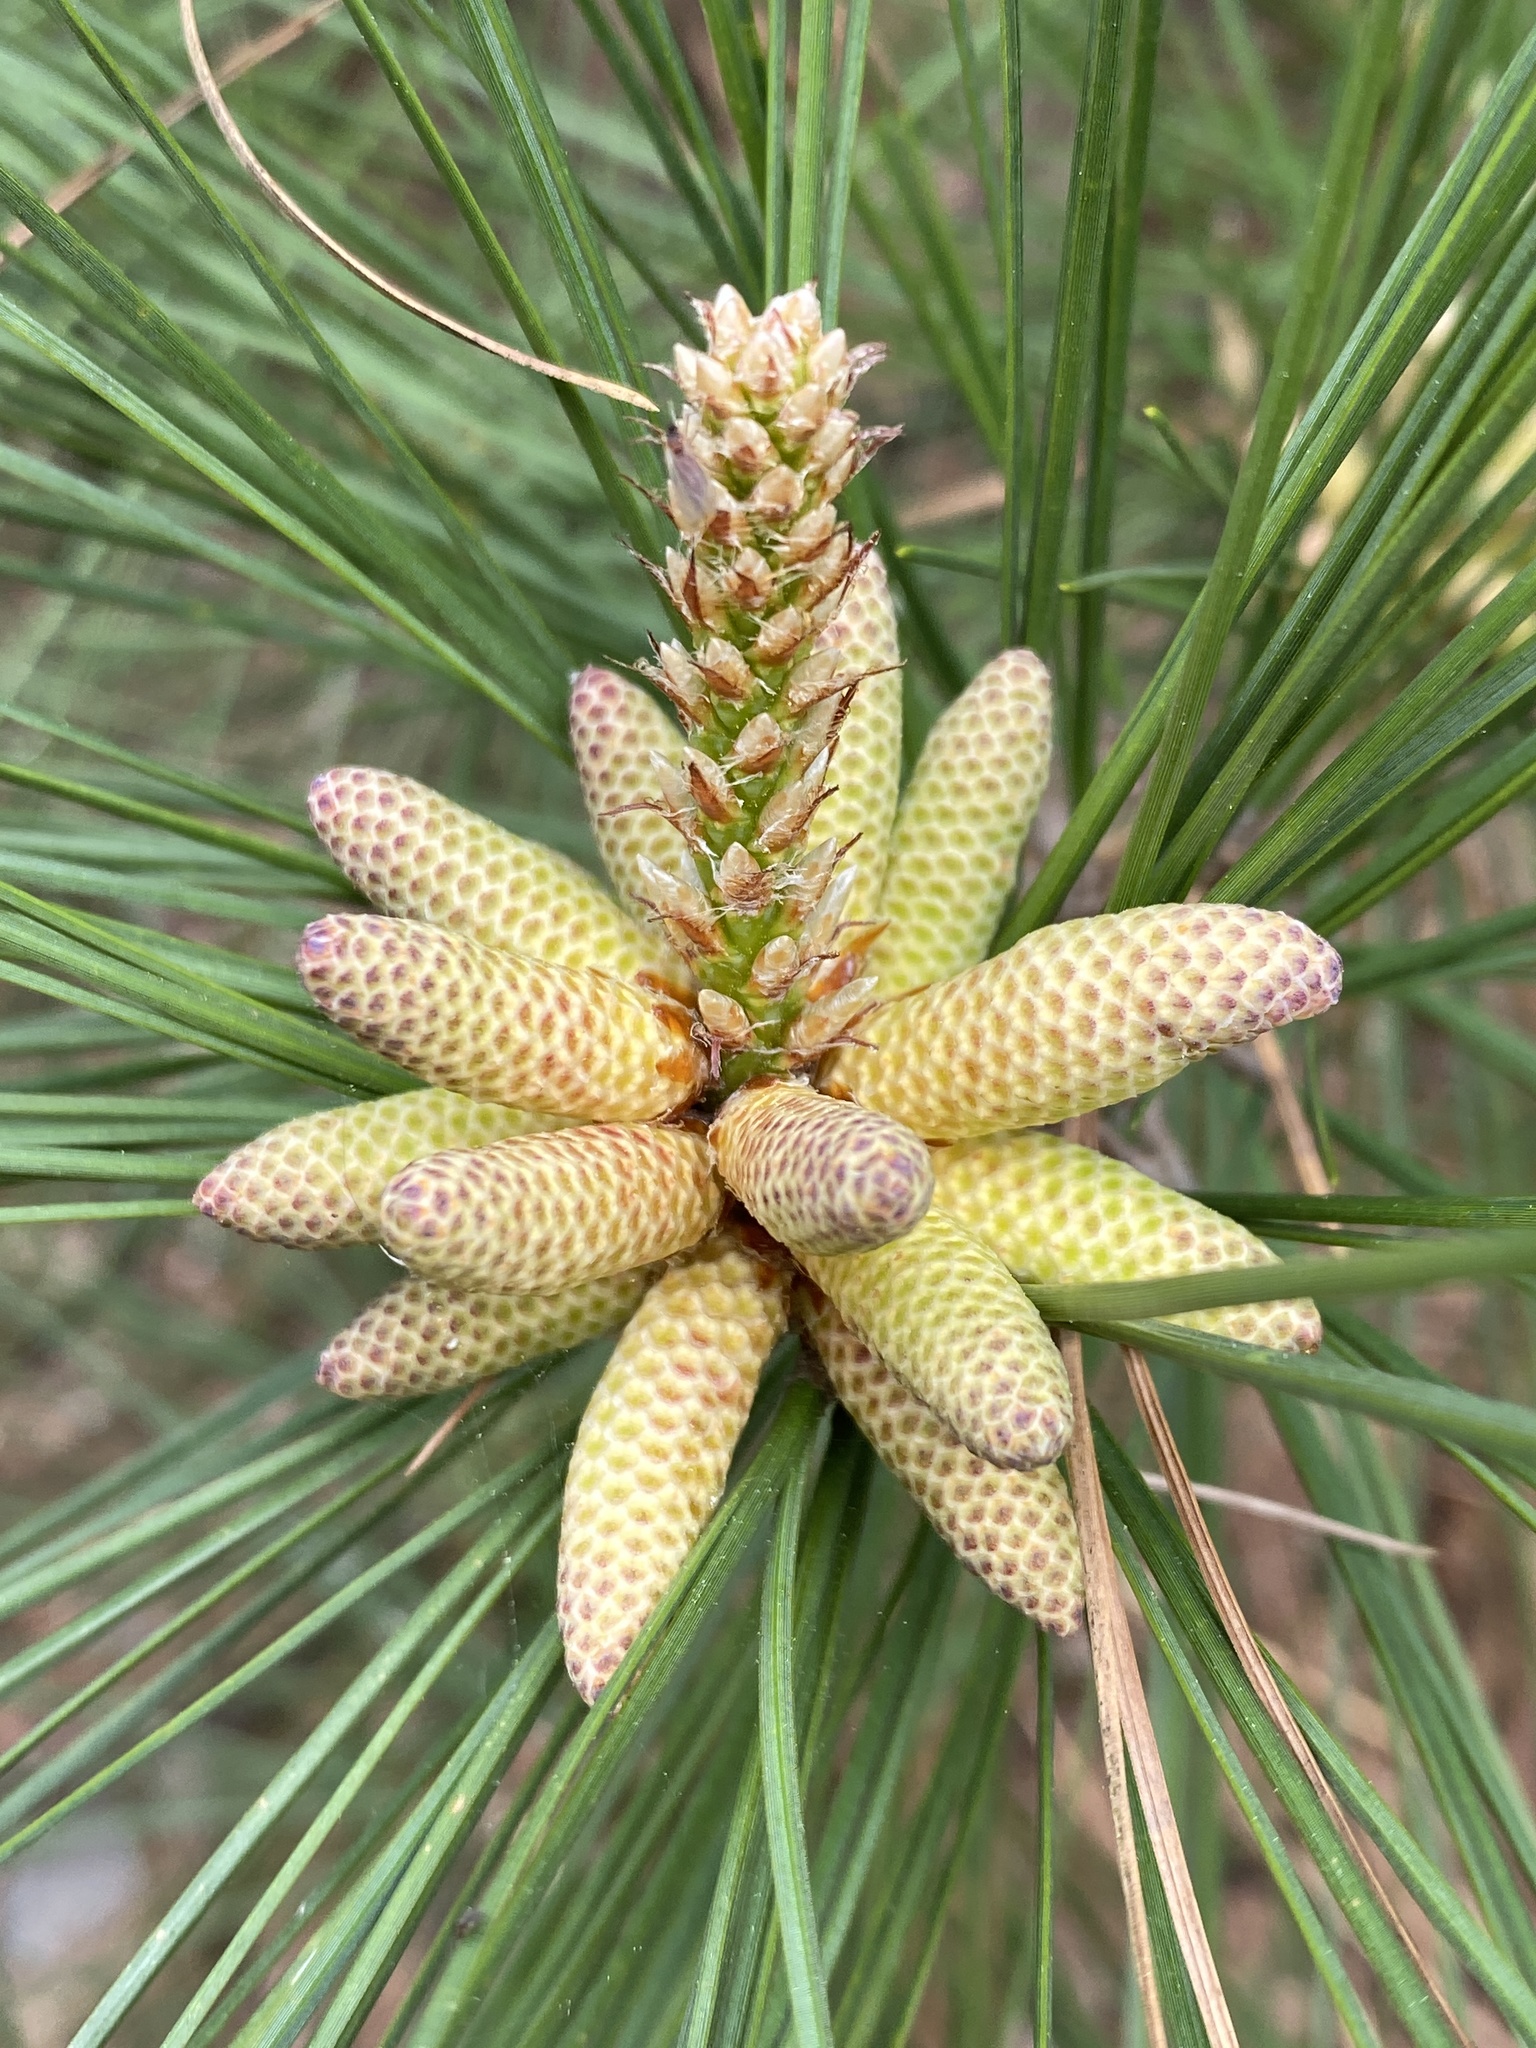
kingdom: Plantae
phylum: Tracheophyta
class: Pinopsida
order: Pinales
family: Pinaceae
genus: Pinus
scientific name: Pinus taeda
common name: Loblolly pine
